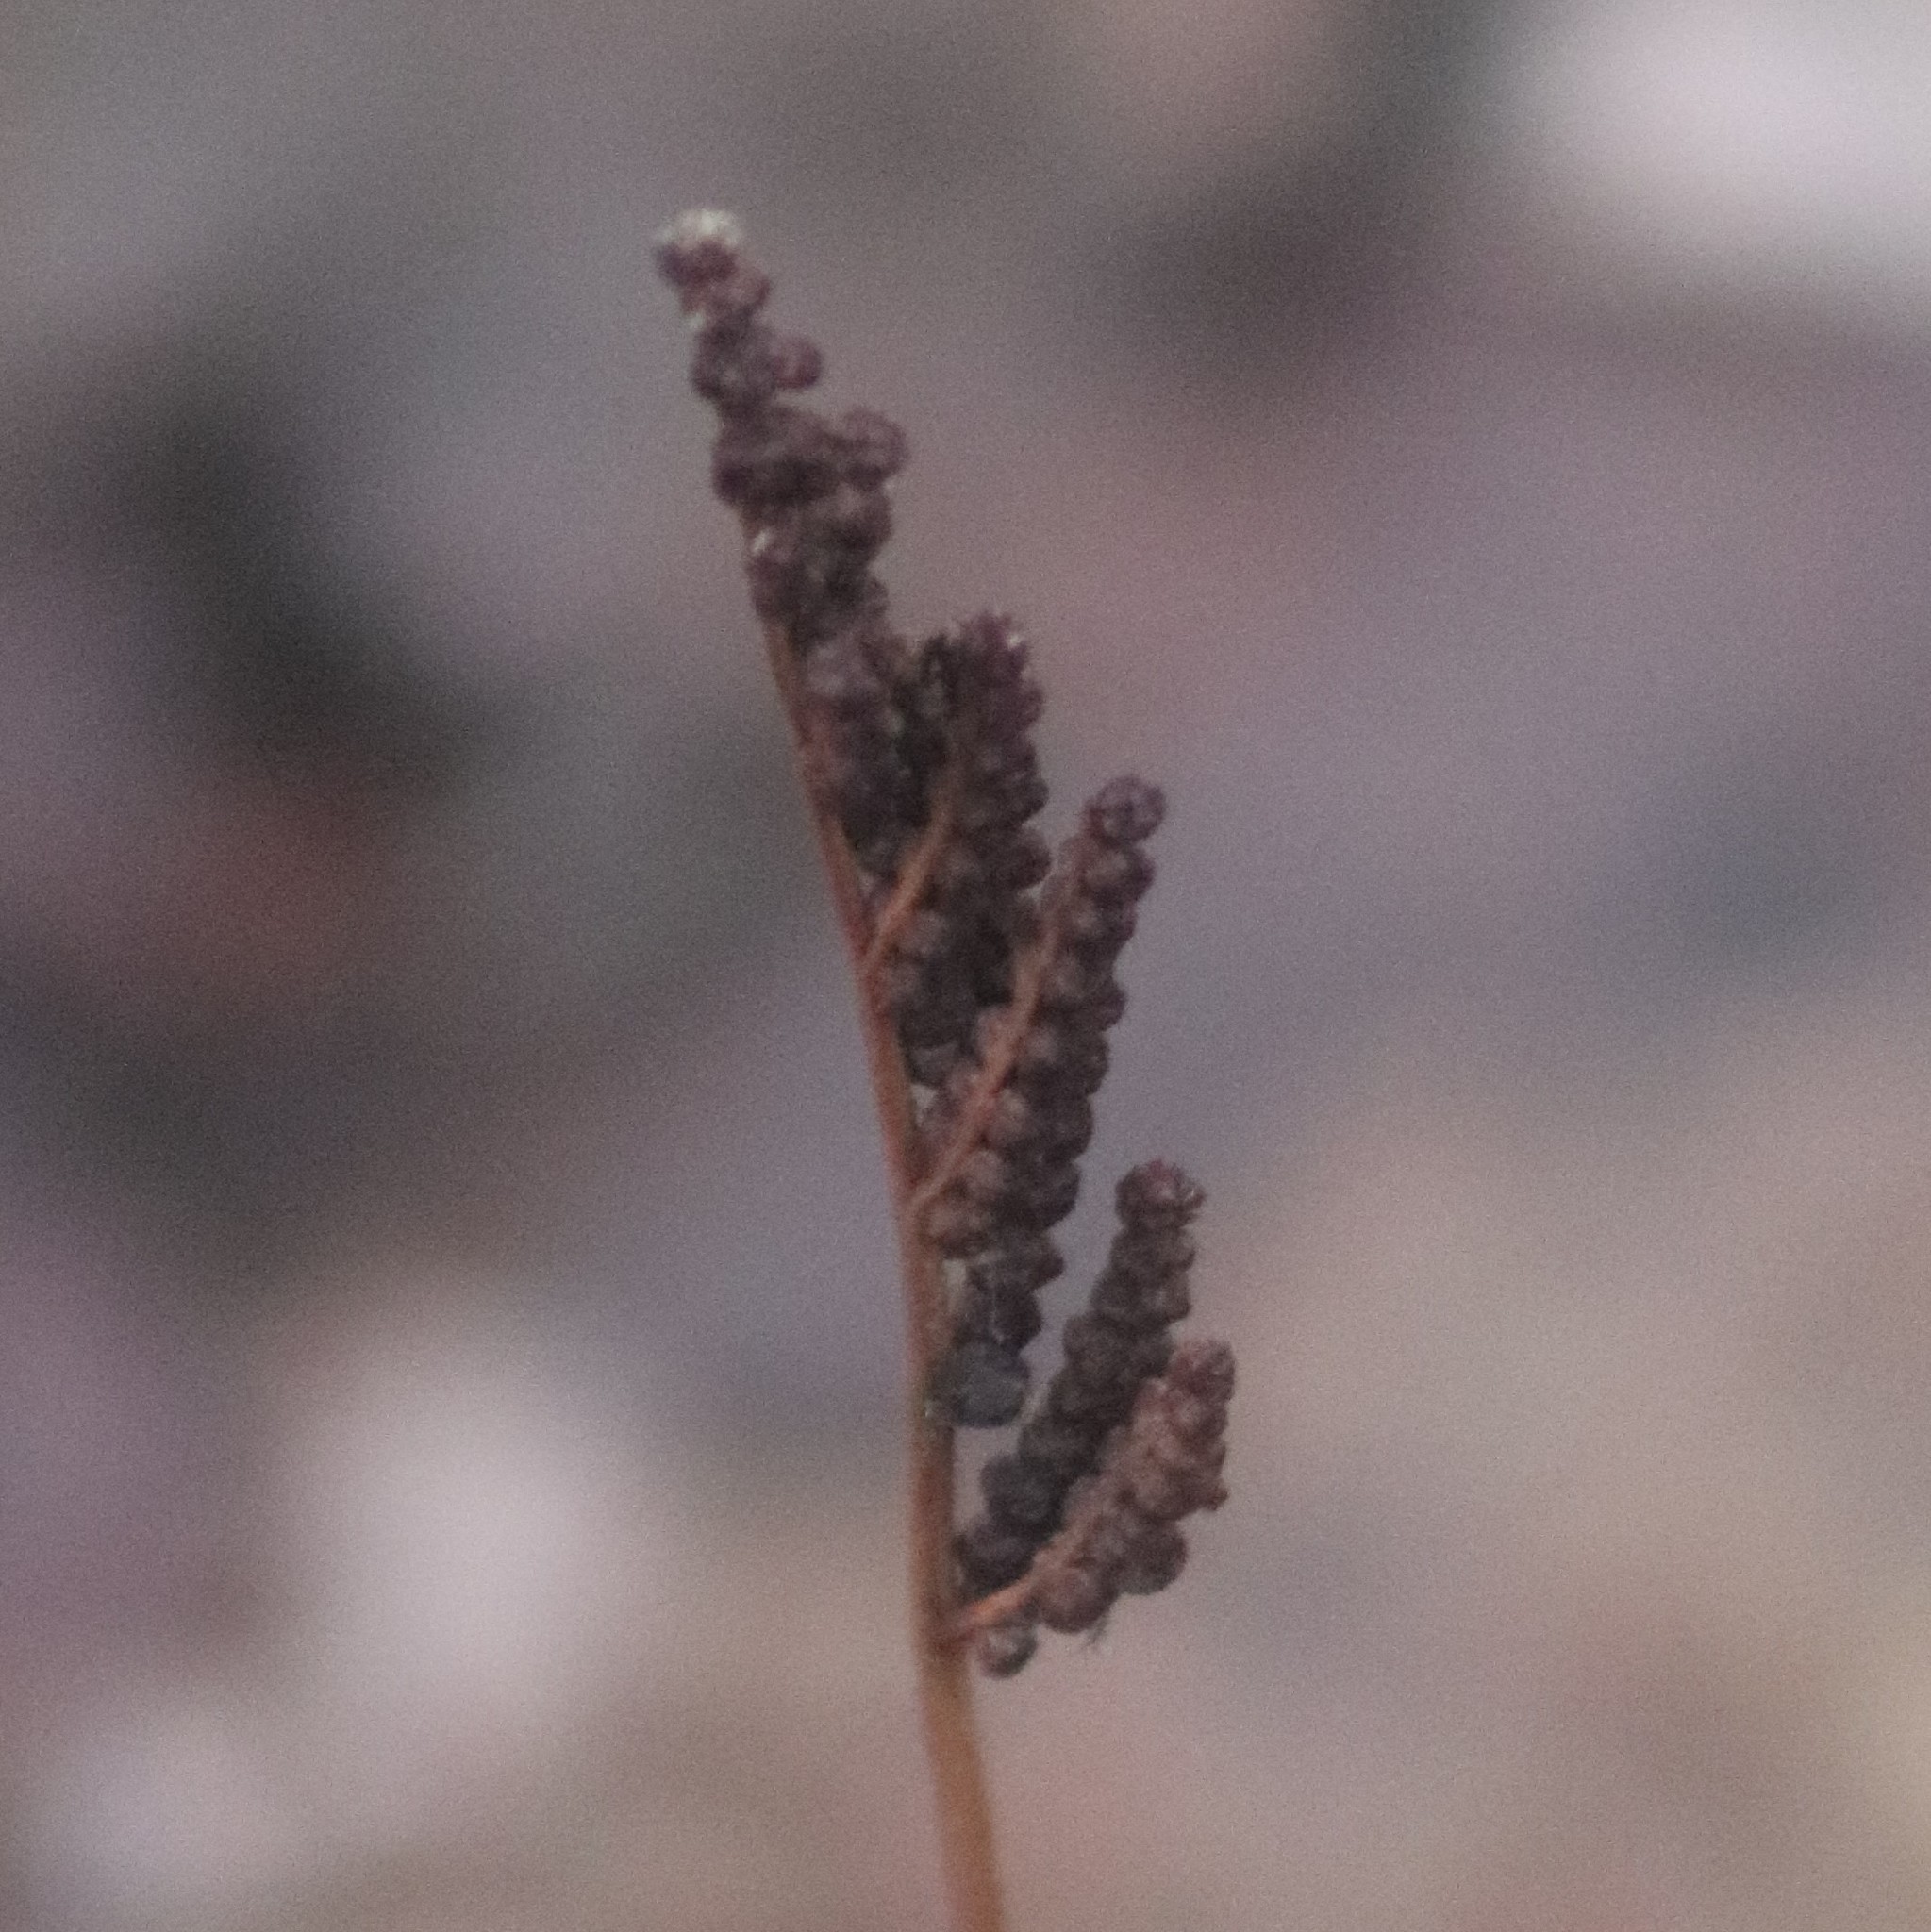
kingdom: Plantae
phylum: Tracheophyta
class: Polypodiopsida
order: Polypodiales
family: Onocleaceae
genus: Onoclea
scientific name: Onoclea sensibilis
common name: Sensitive fern
